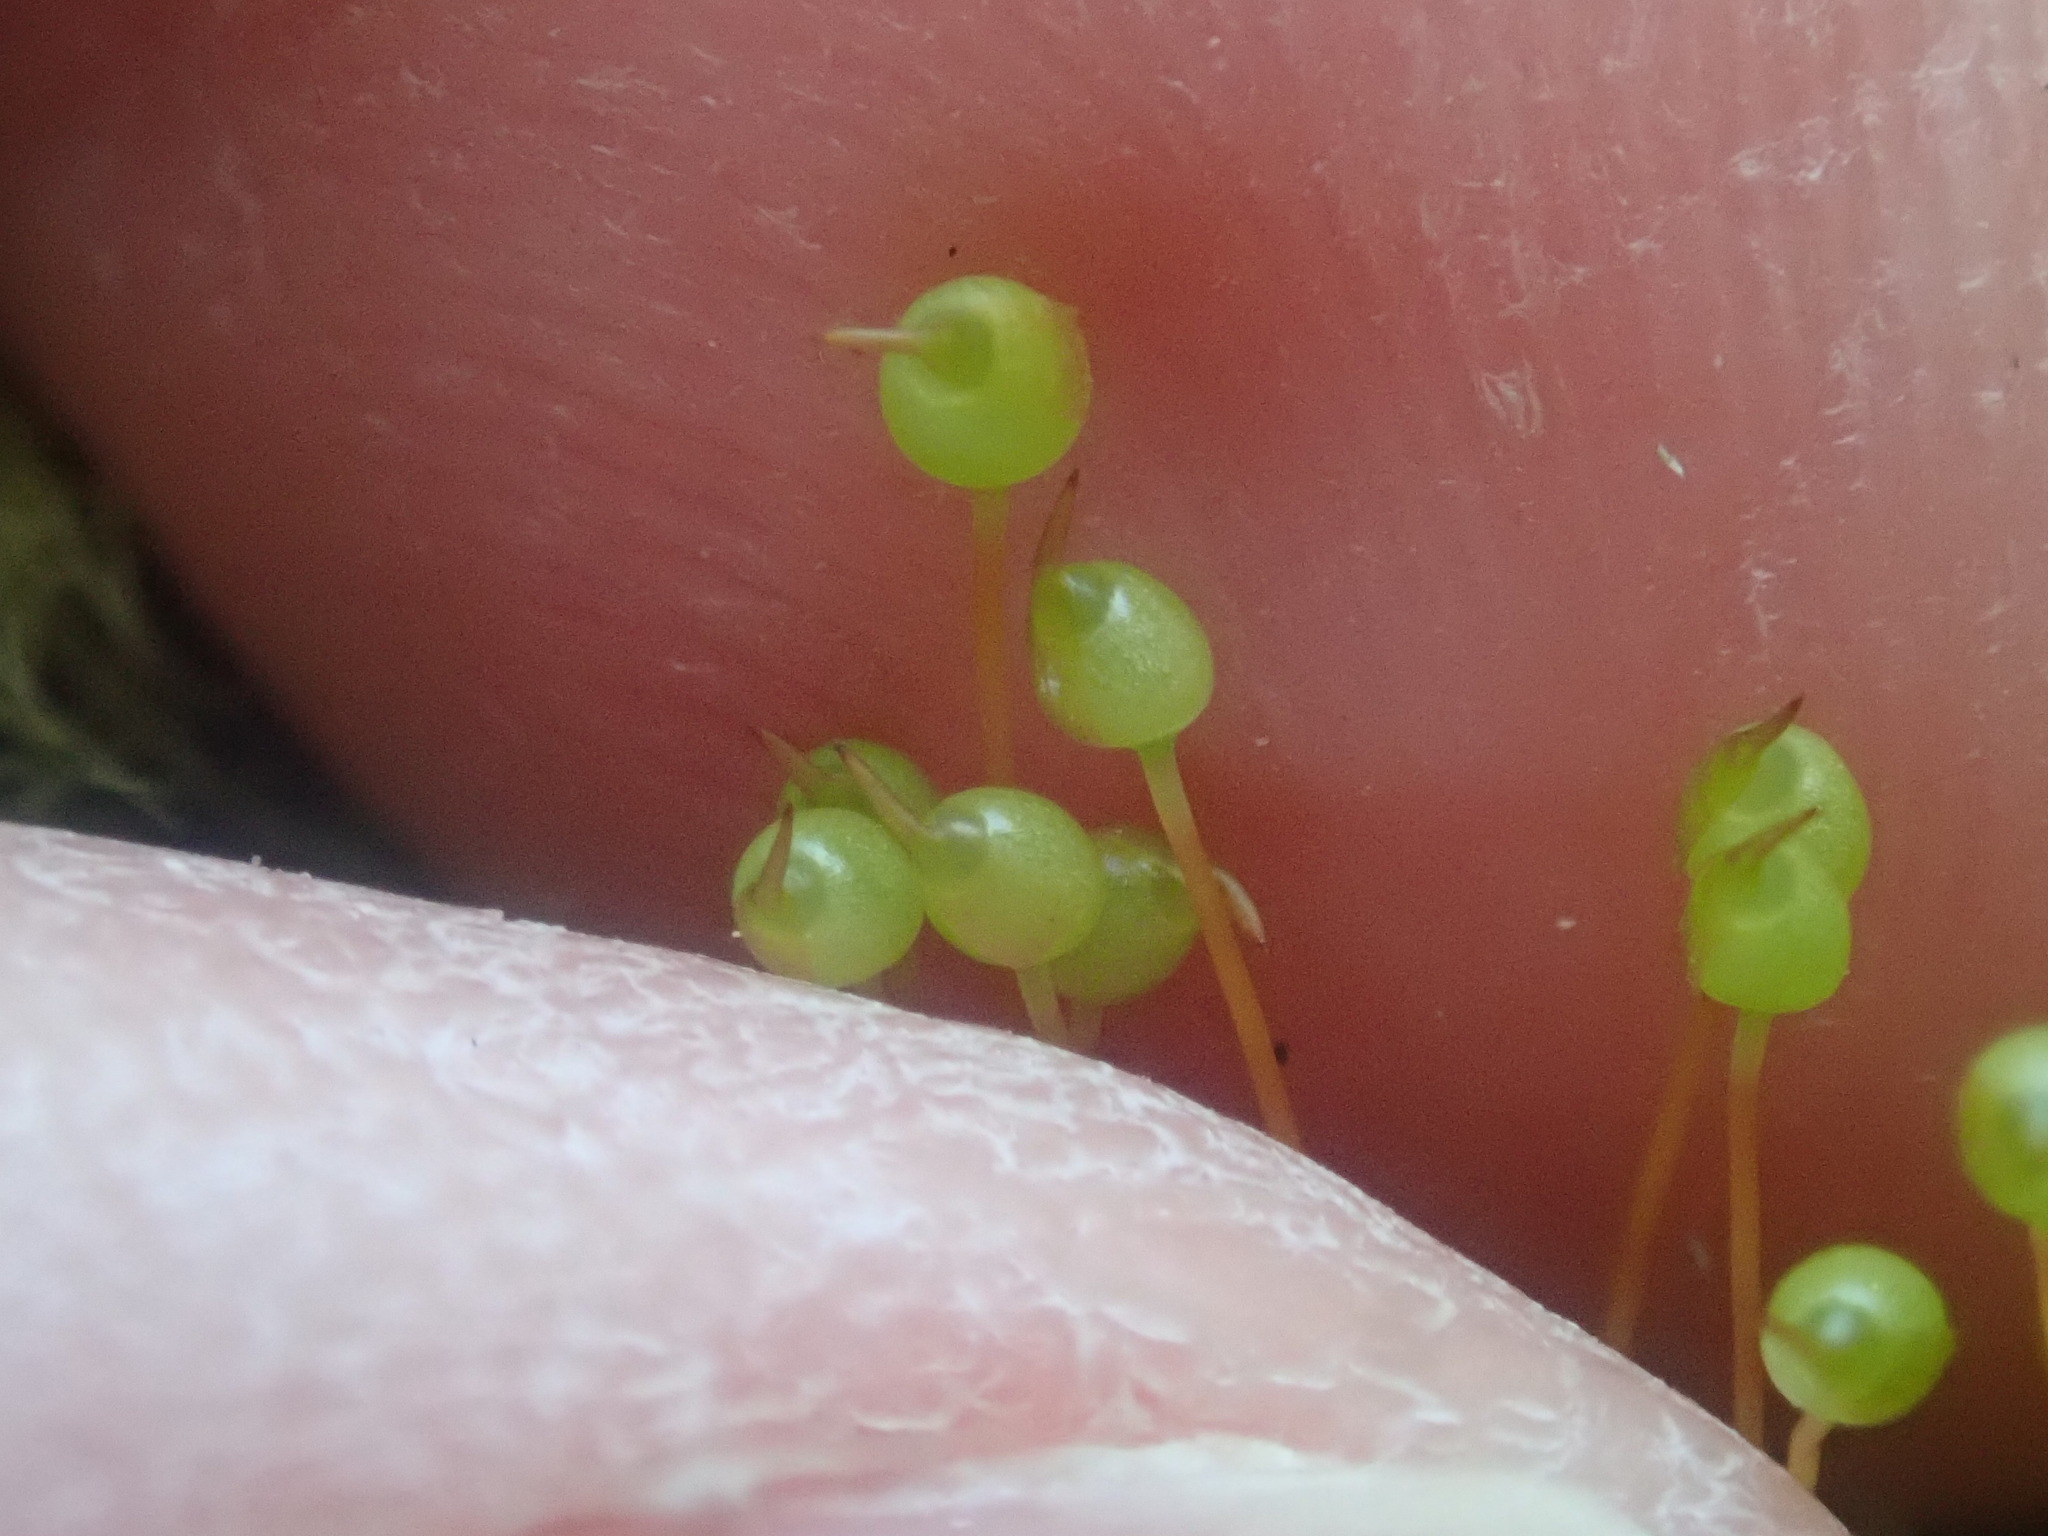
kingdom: Plantae
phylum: Bryophyta
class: Bryopsida
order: Bartramiales
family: Bartramiaceae
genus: Bartramia
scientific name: Bartramia ithyphylla
